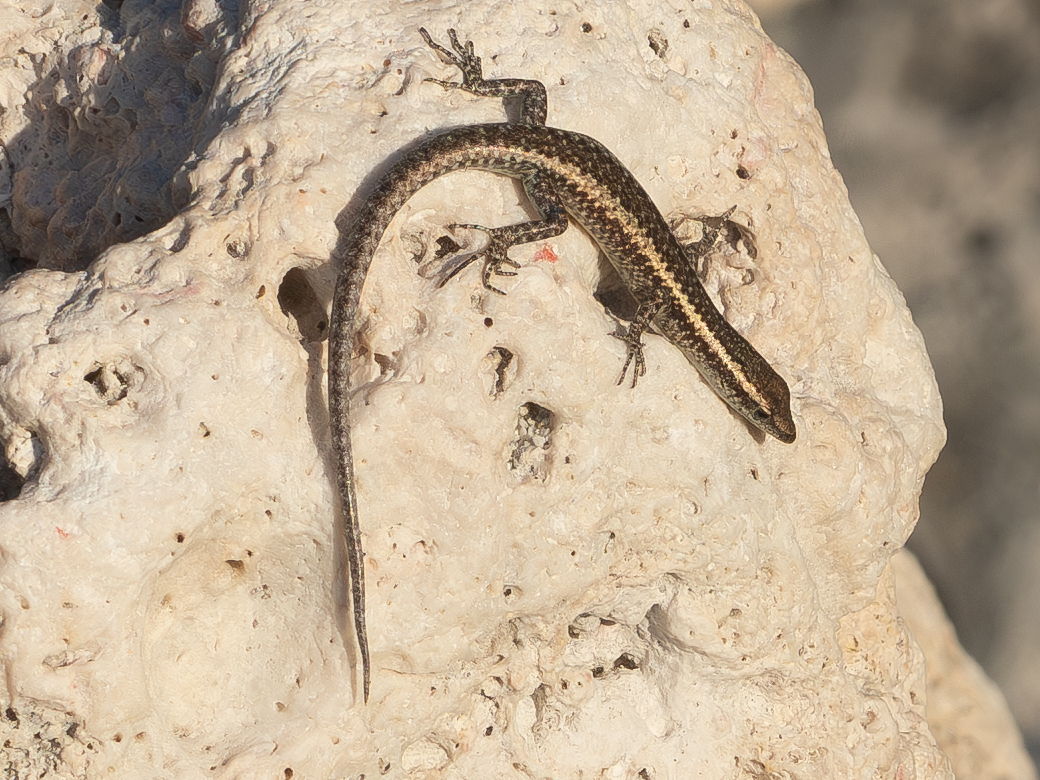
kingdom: Animalia
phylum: Chordata
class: Squamata
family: Scincidae
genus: Cryptoblepharus
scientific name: Cryptoblepharus novocaledonicus
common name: New caledonian shore skink
